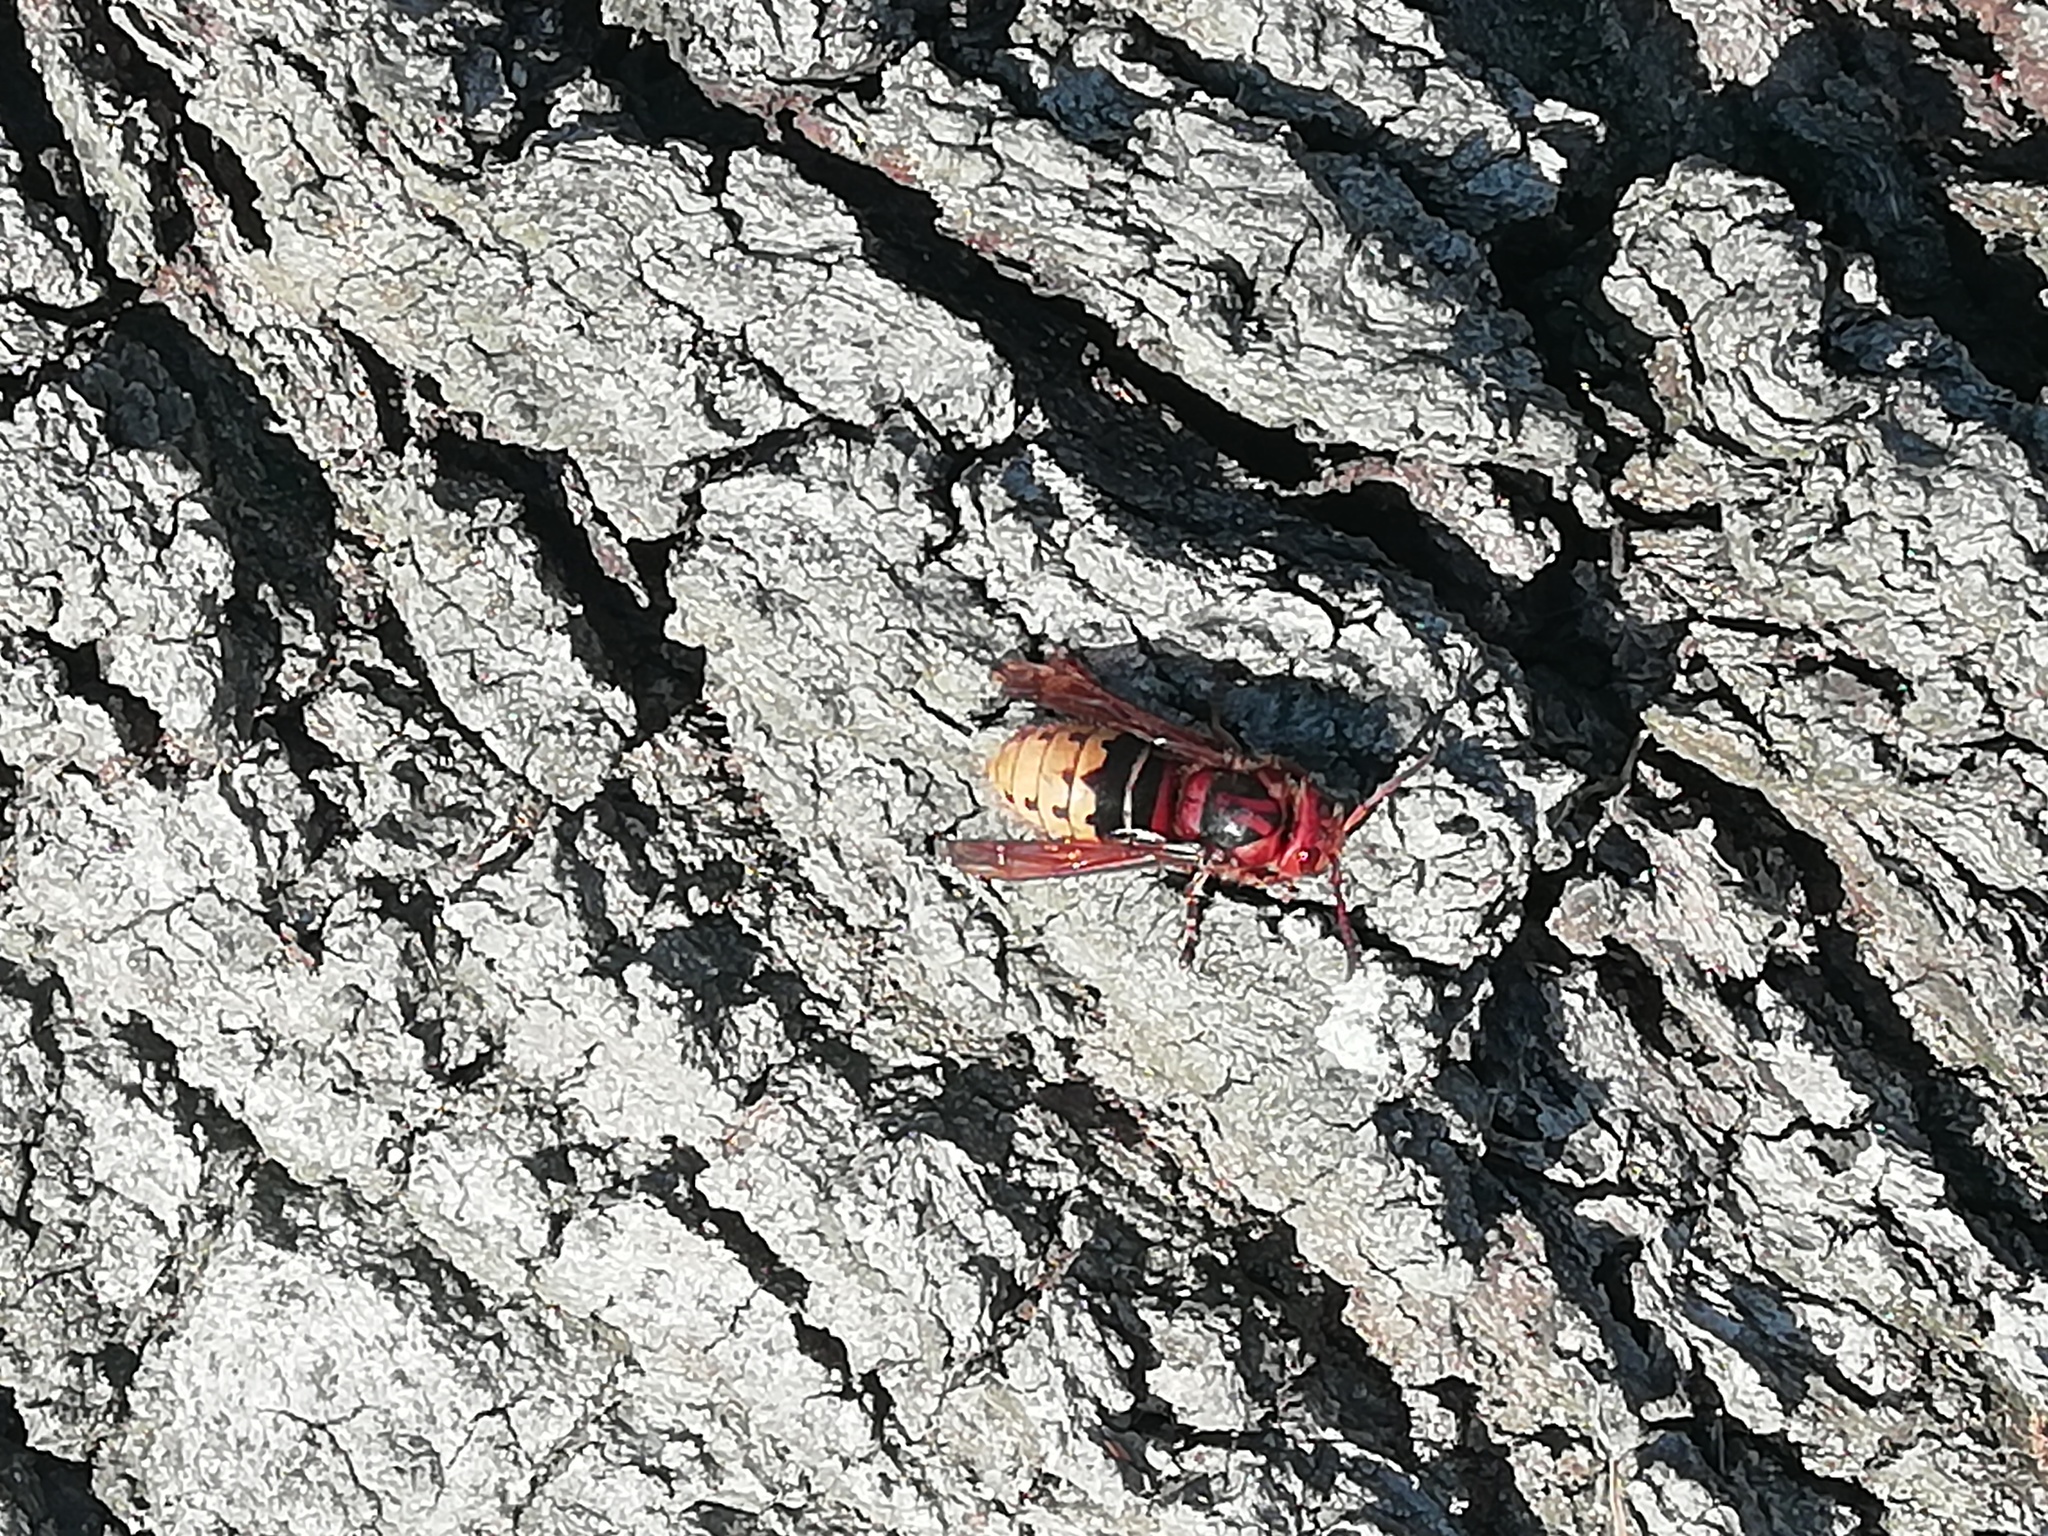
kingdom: Animalia
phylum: Arthropoda
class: Insecta
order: Hymenoptera
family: Vespidae
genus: Vespa
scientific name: Vespa crabro
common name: Hornet
